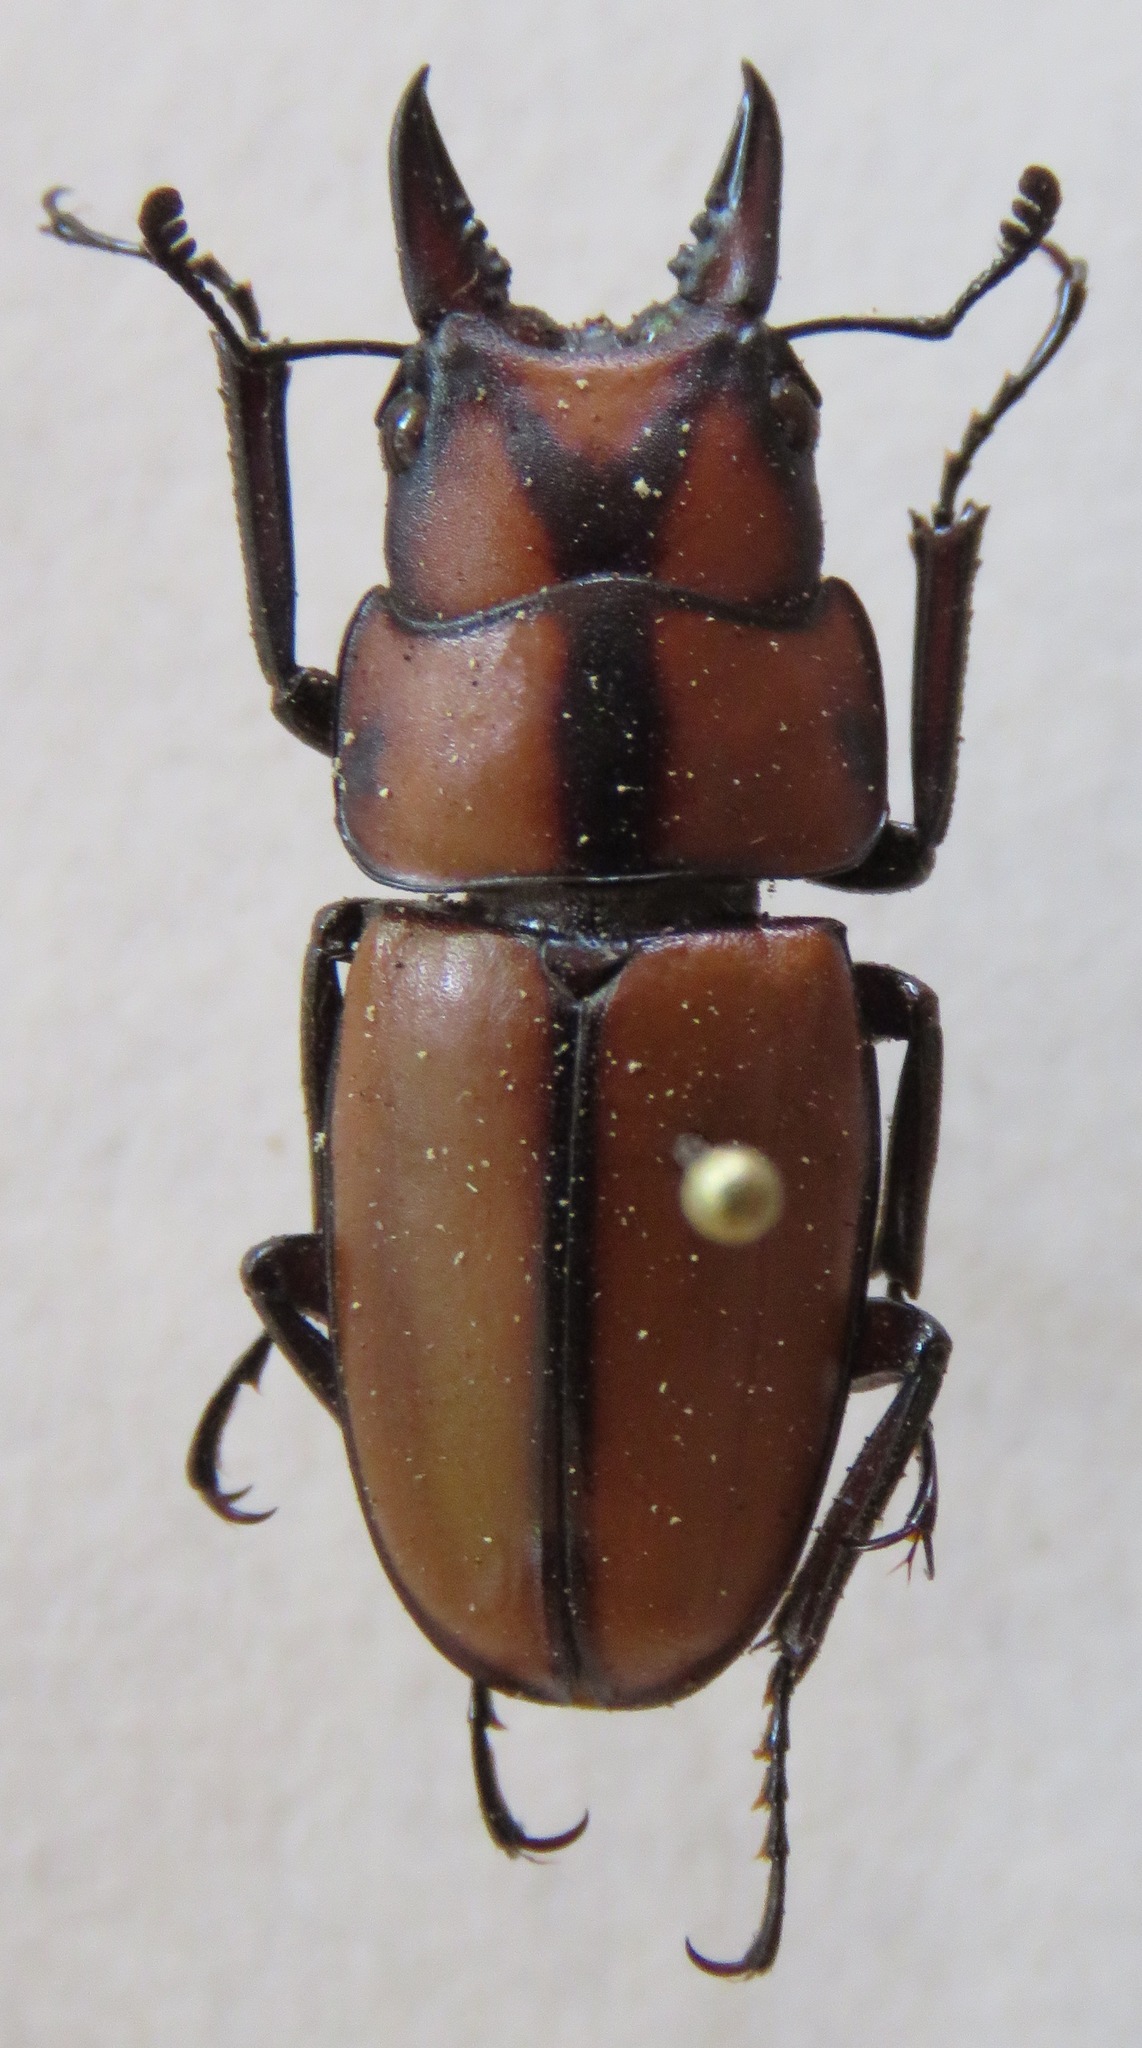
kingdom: Animalia
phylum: Arthropoda
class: Insecta
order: Coleoptera
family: Lucanidae
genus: Prosopocoilus
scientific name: Prosopocoilus suturalis
